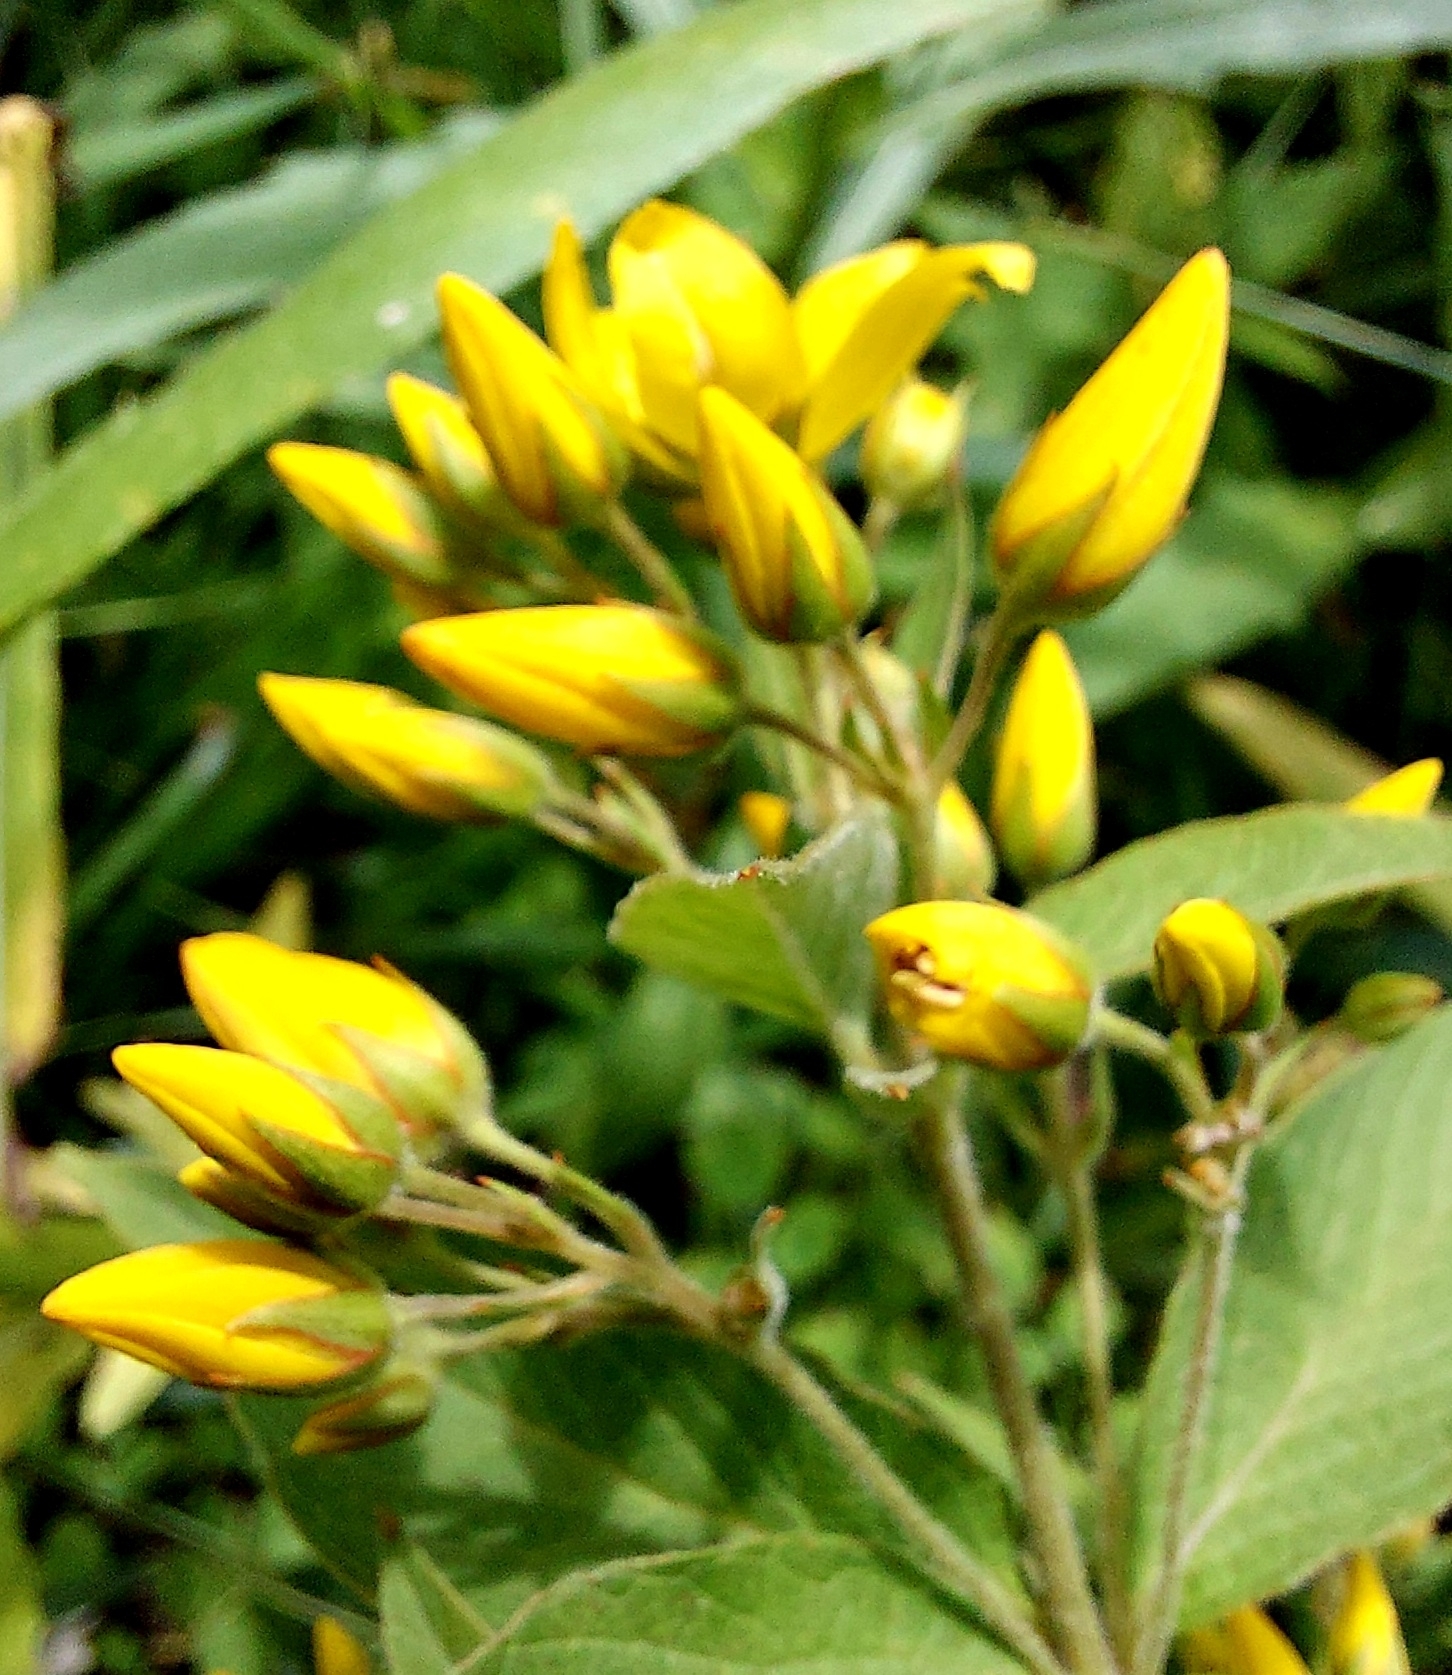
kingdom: Plantae
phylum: Tracheophyta
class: Magnoliopsida
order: Ericales
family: Primulaceae
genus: Lysimachia
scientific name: Lysimachia vulgaris
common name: Yellow loosestrife
